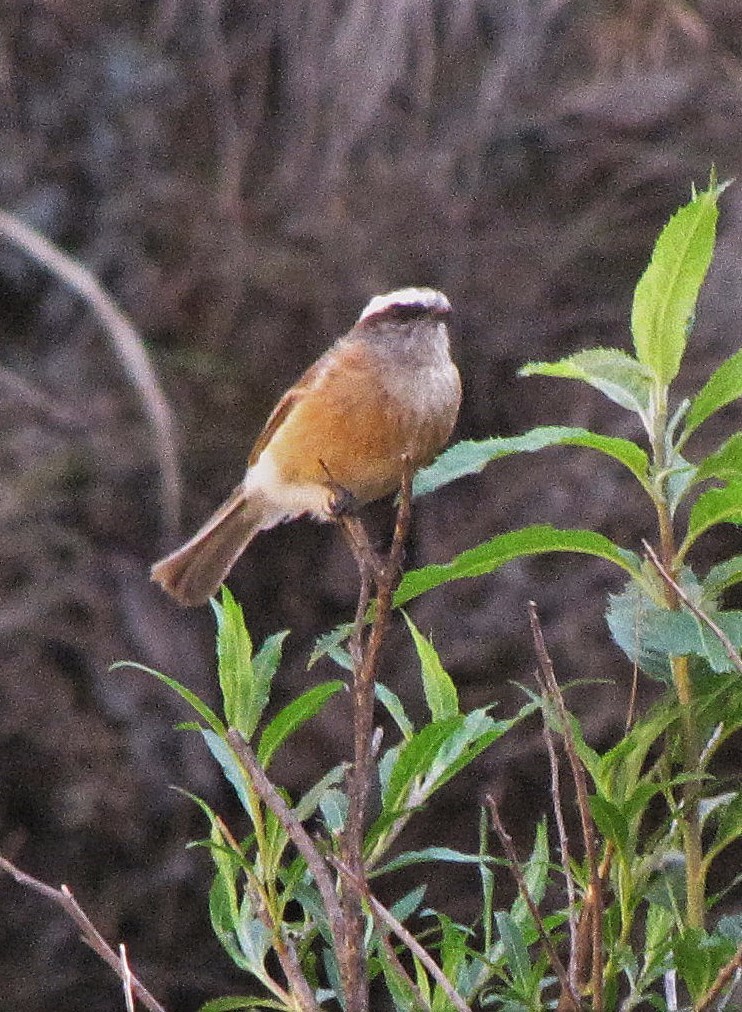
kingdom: Animalia
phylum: Chordata
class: Aves
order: Passeriformes
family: Tyrannidae
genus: Ochthoeca
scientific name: Ochthoeca oenanthoides
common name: D'orbigny's chat-tyrant
